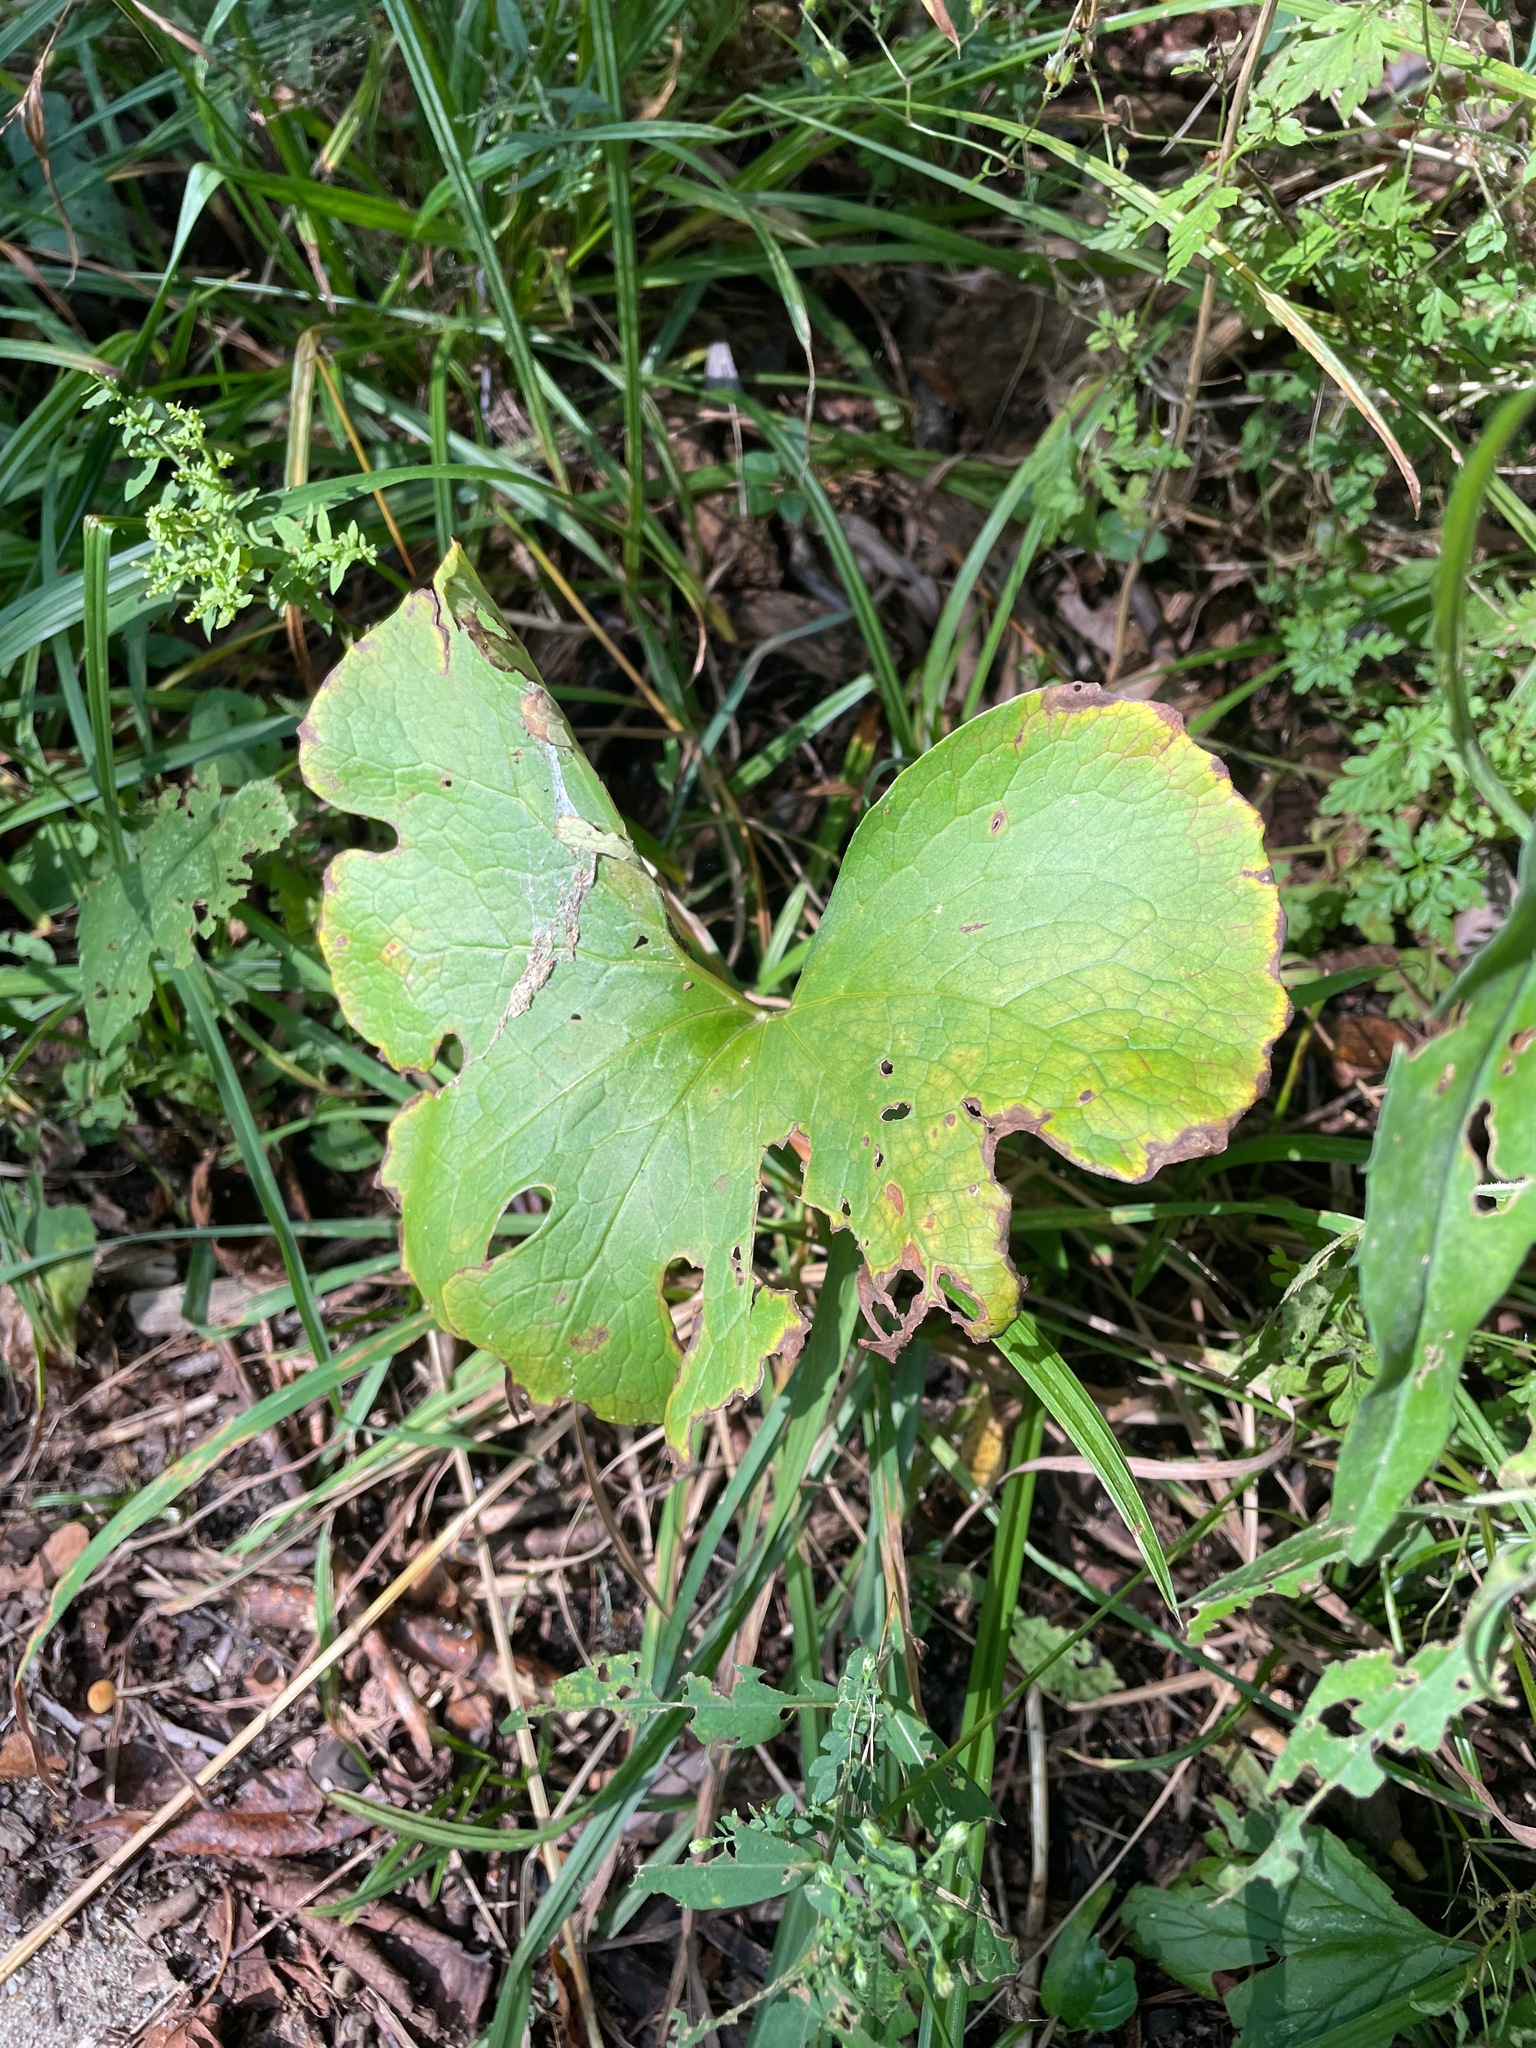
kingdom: Plantae
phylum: Tracheophyta
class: Magnoliopsida
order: Ranunculales
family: Papaveraceae
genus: Sanguinaria
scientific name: Sanguinaria canadensis
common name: Bloodroot
